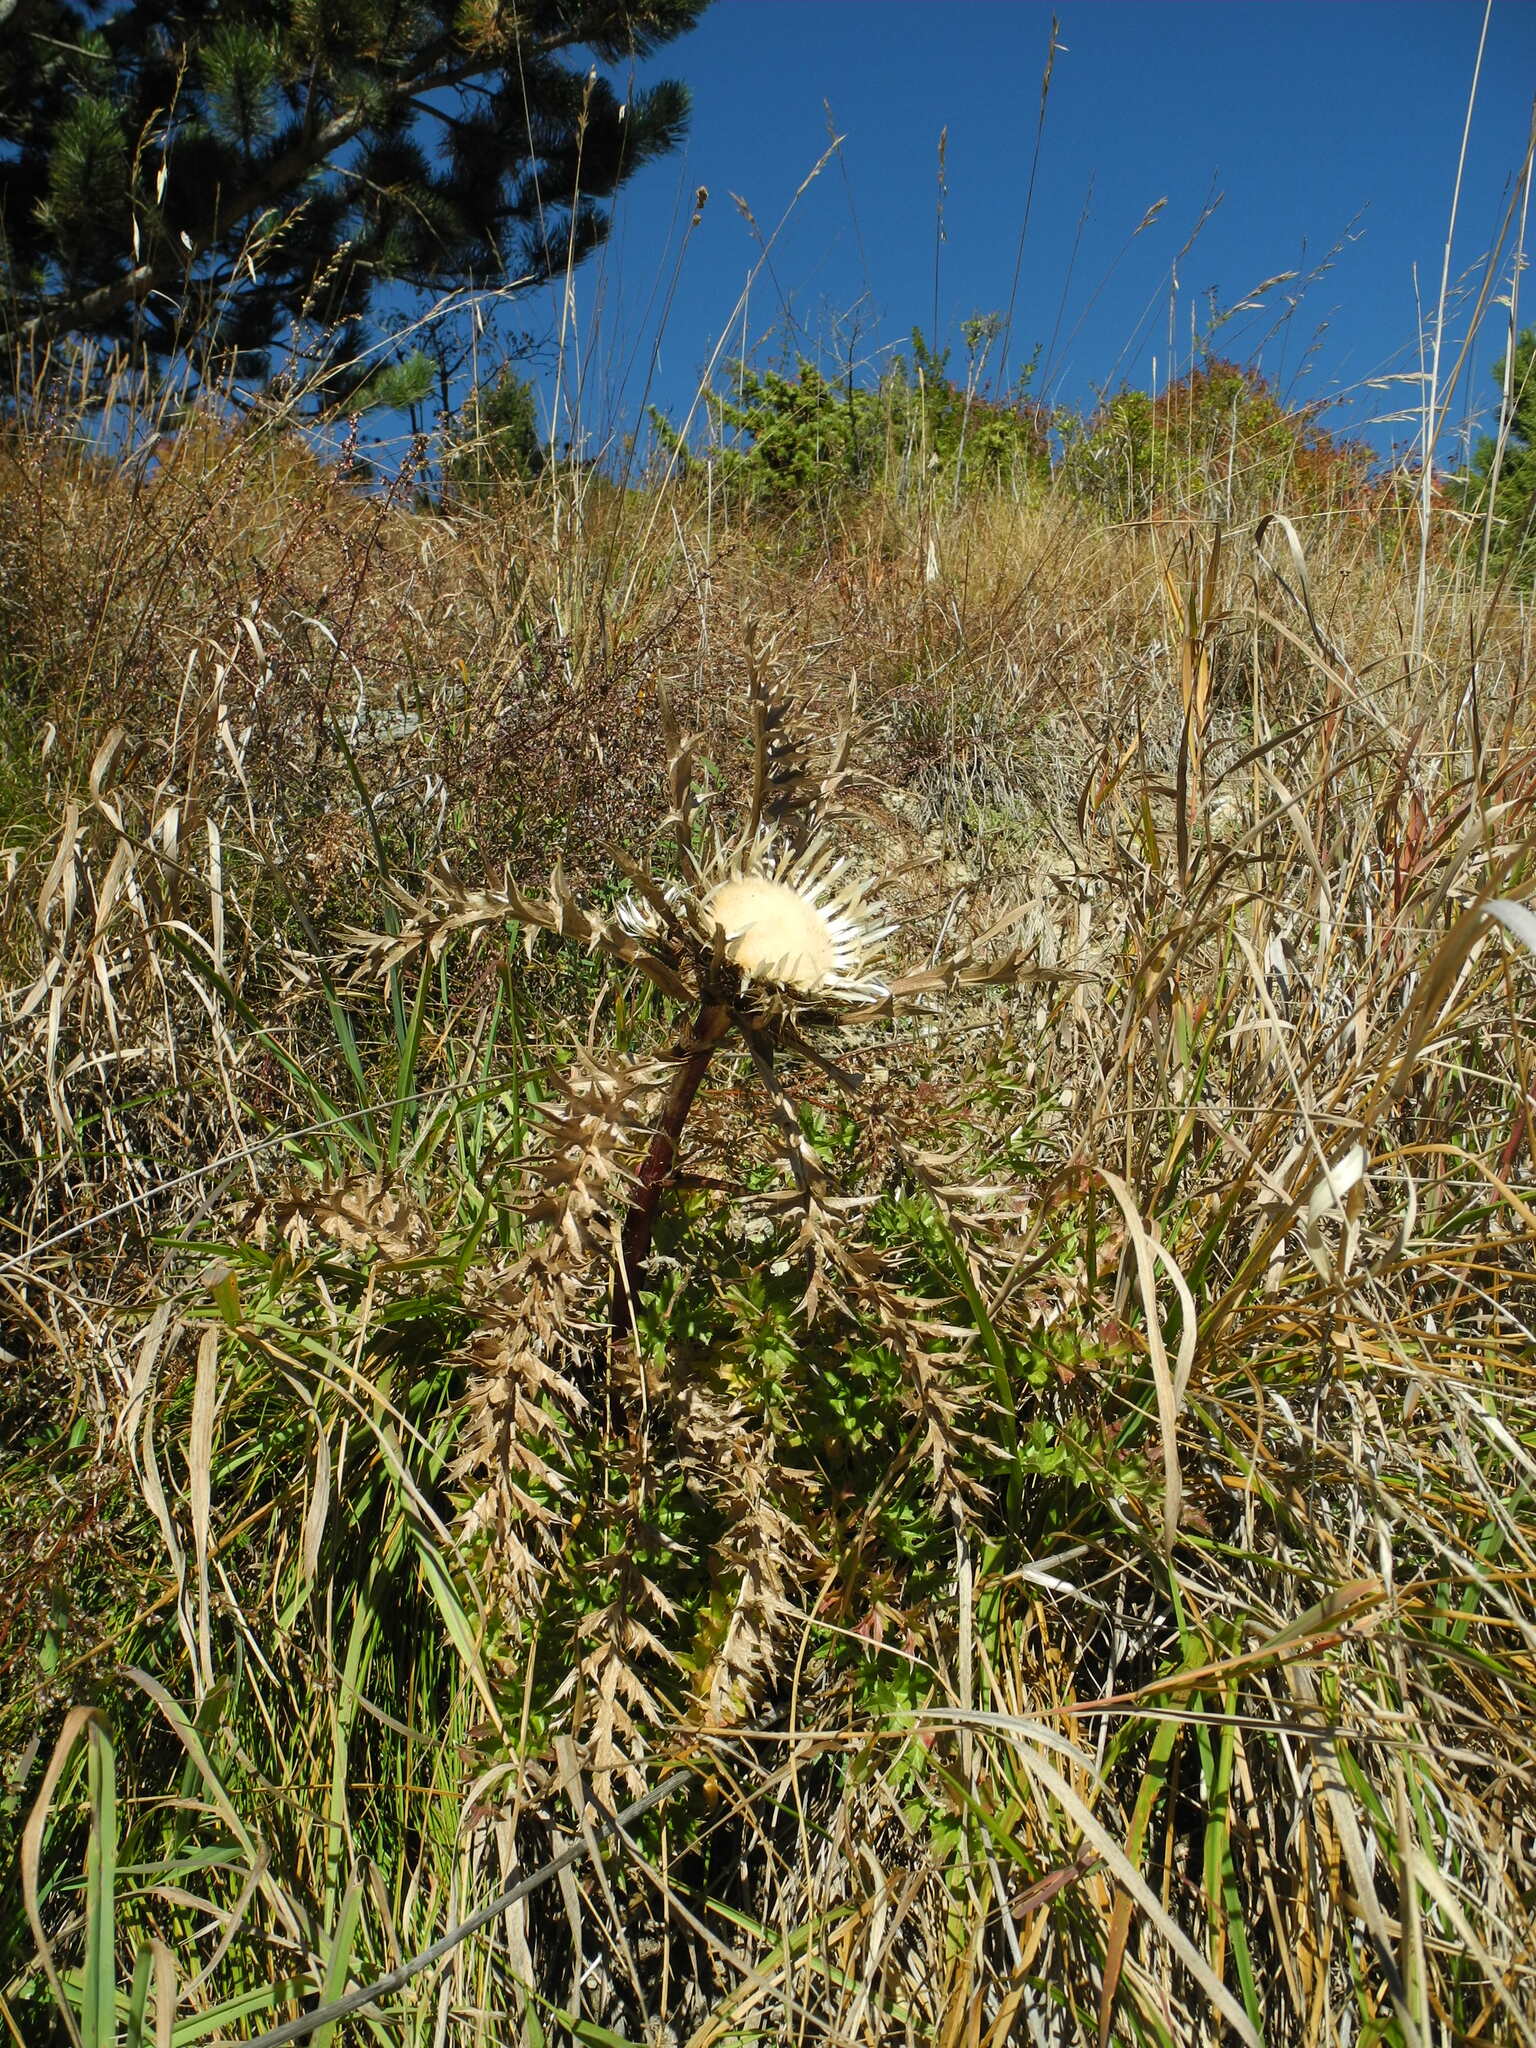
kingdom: Plantae
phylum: Tracheophyta
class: Magnoliopsida
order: Asterales
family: Asteraceae
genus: Carlina
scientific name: Carlina acaulis
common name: Stemless carline thistle
